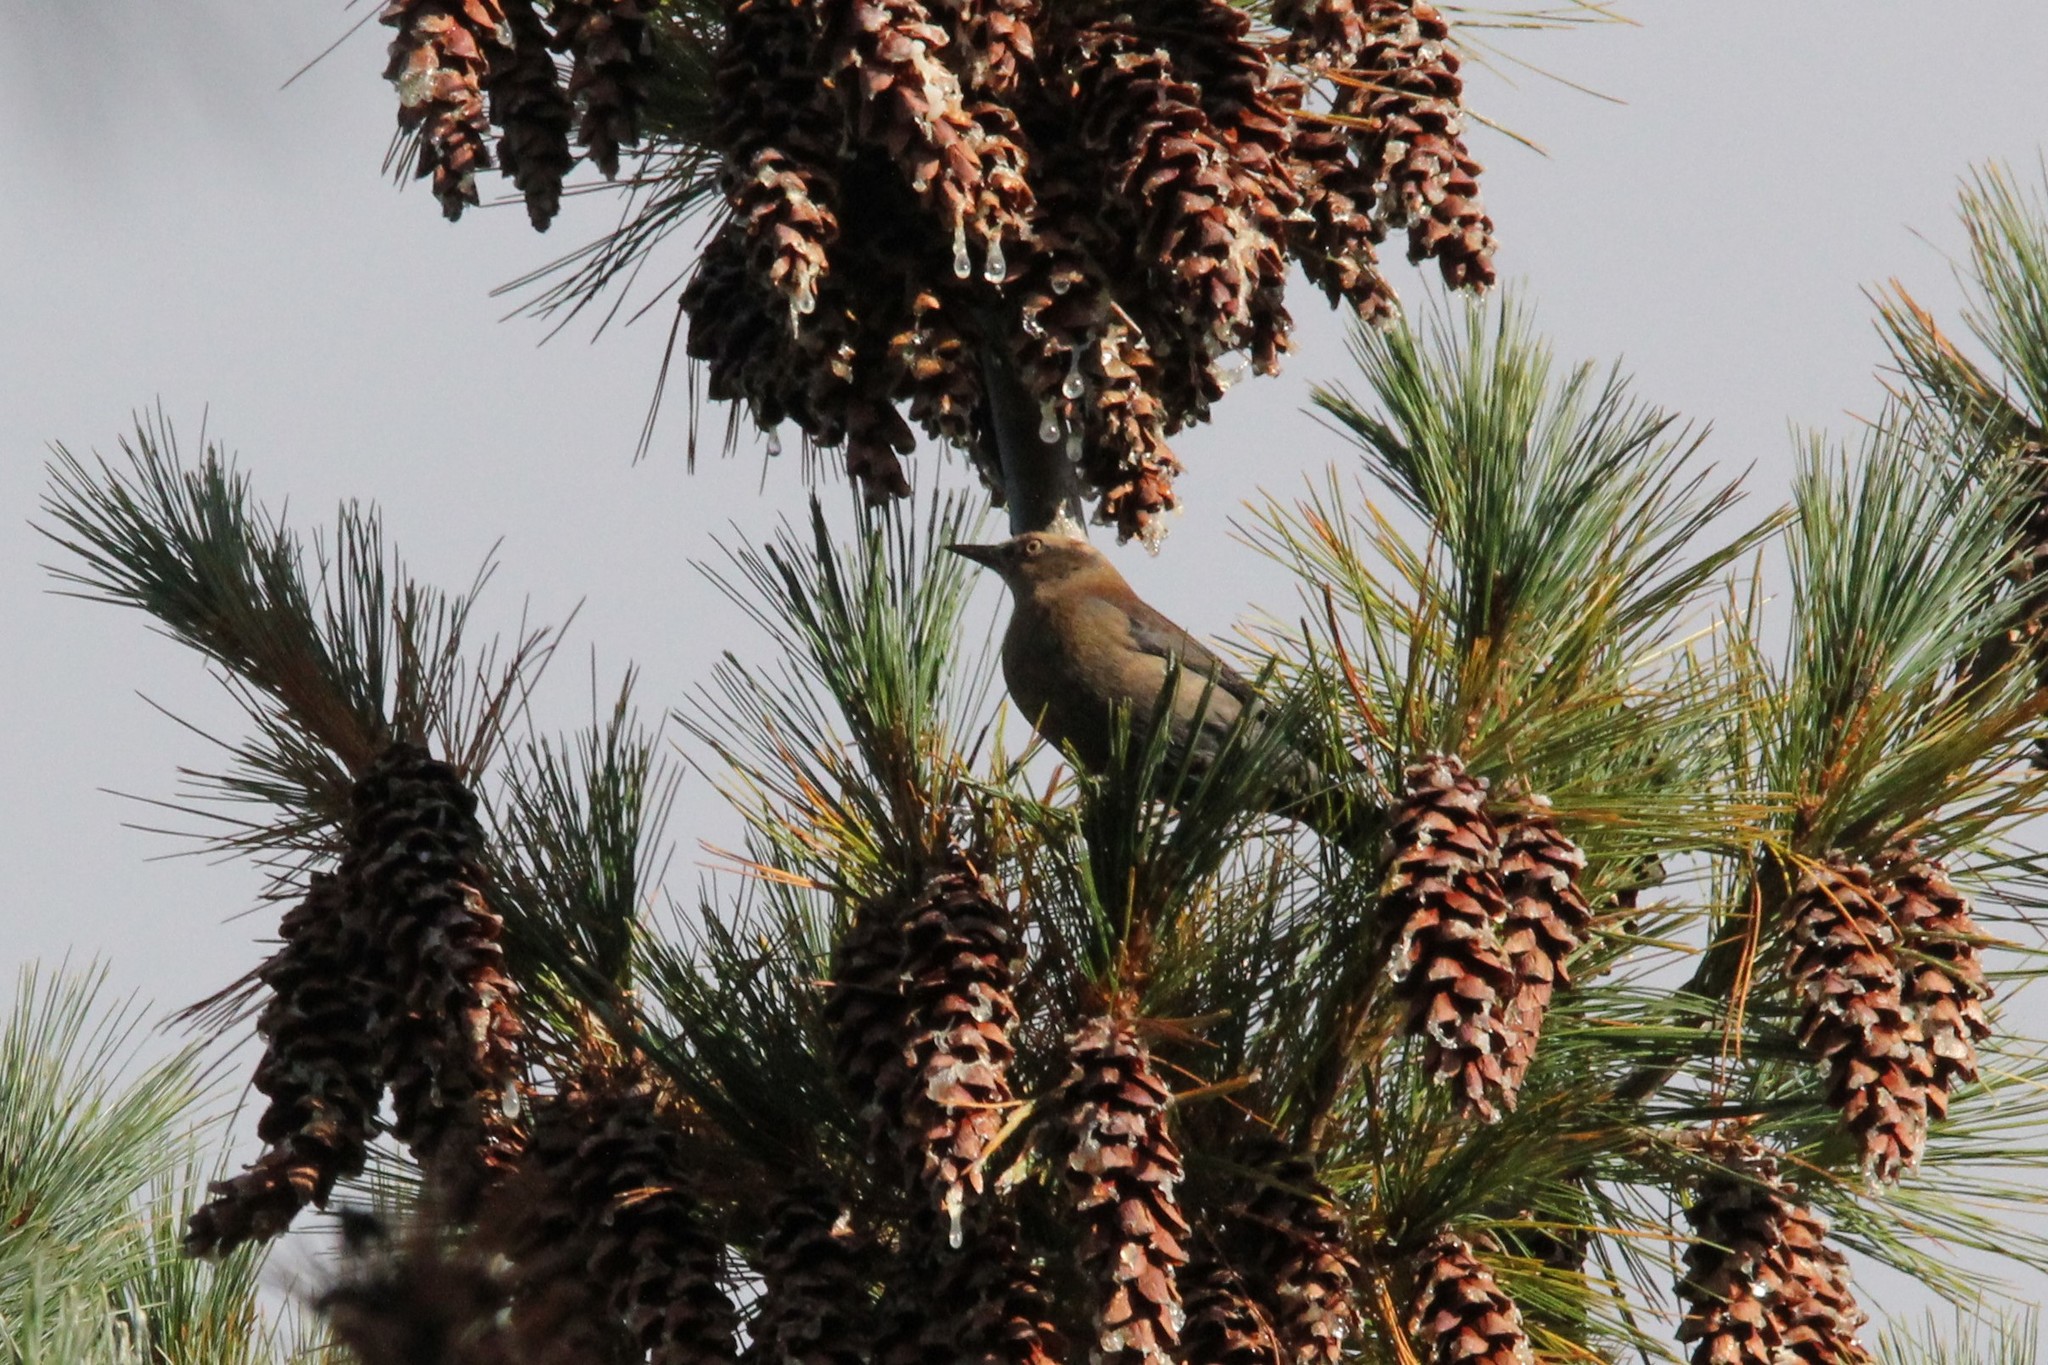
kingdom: Animalia
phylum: Chordata
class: Aves
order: Passeriformes
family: Icteridae
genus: Euphagus
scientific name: Euphagus carolinus
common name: Rusty blackbird
